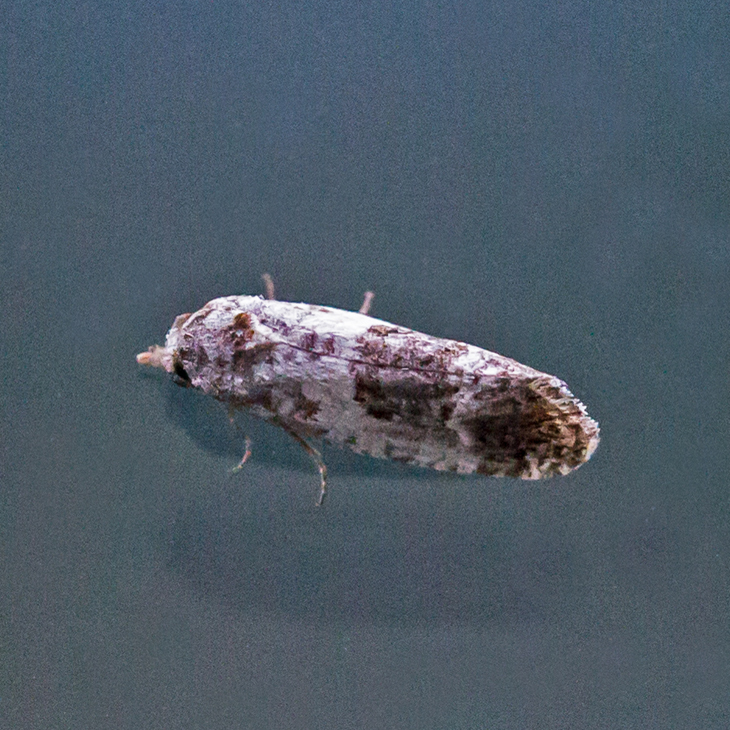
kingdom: Animalia
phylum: Arthropoda
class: Insecta
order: Lepidoptera
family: Tortricidae
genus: Rudenia
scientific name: Rudenia leguminana
